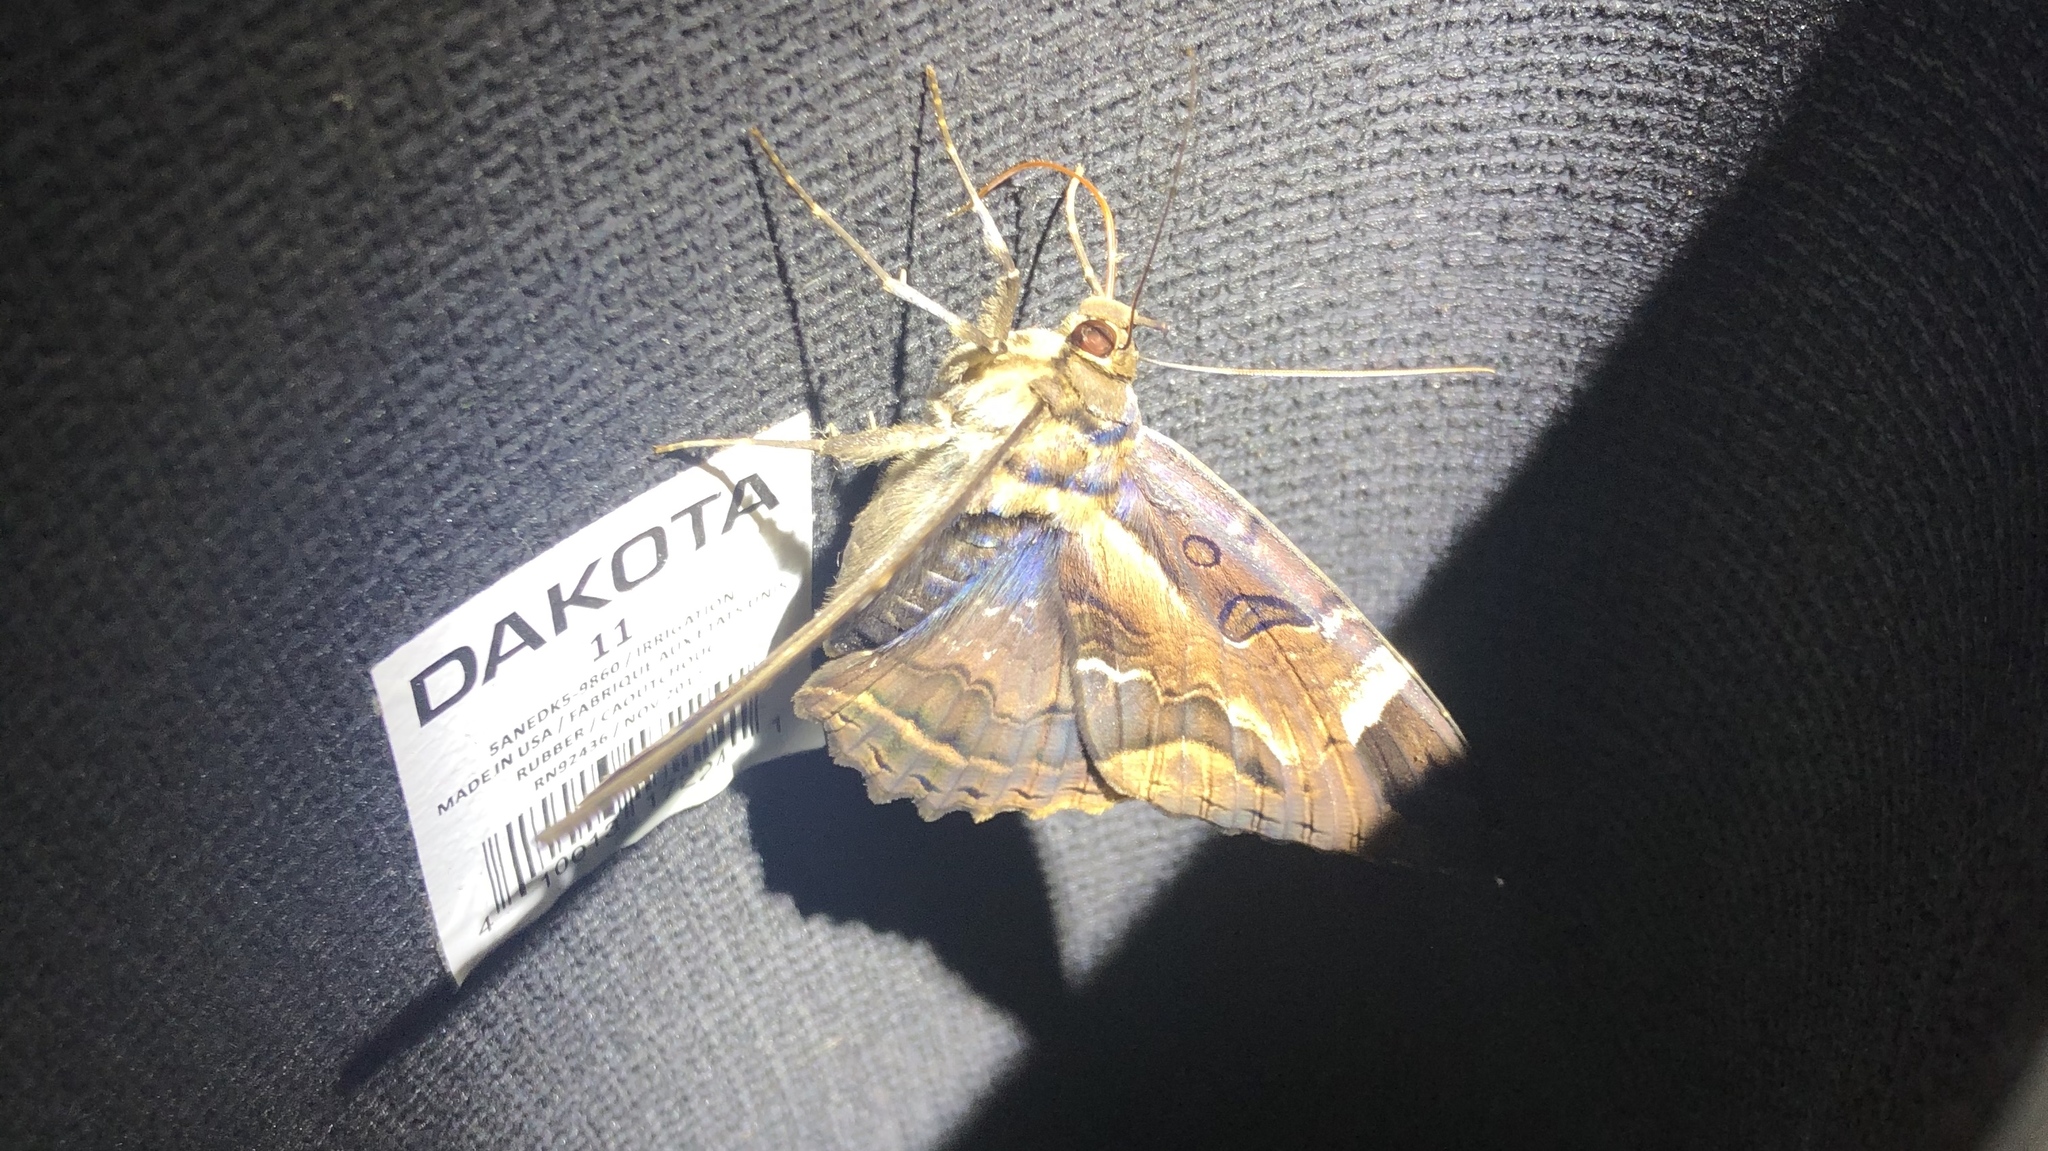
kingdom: Animalia
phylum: Arthropoda
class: Insecta
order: Lepidoptera
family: Erebidae
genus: Feigeria
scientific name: Feigeria herilia
